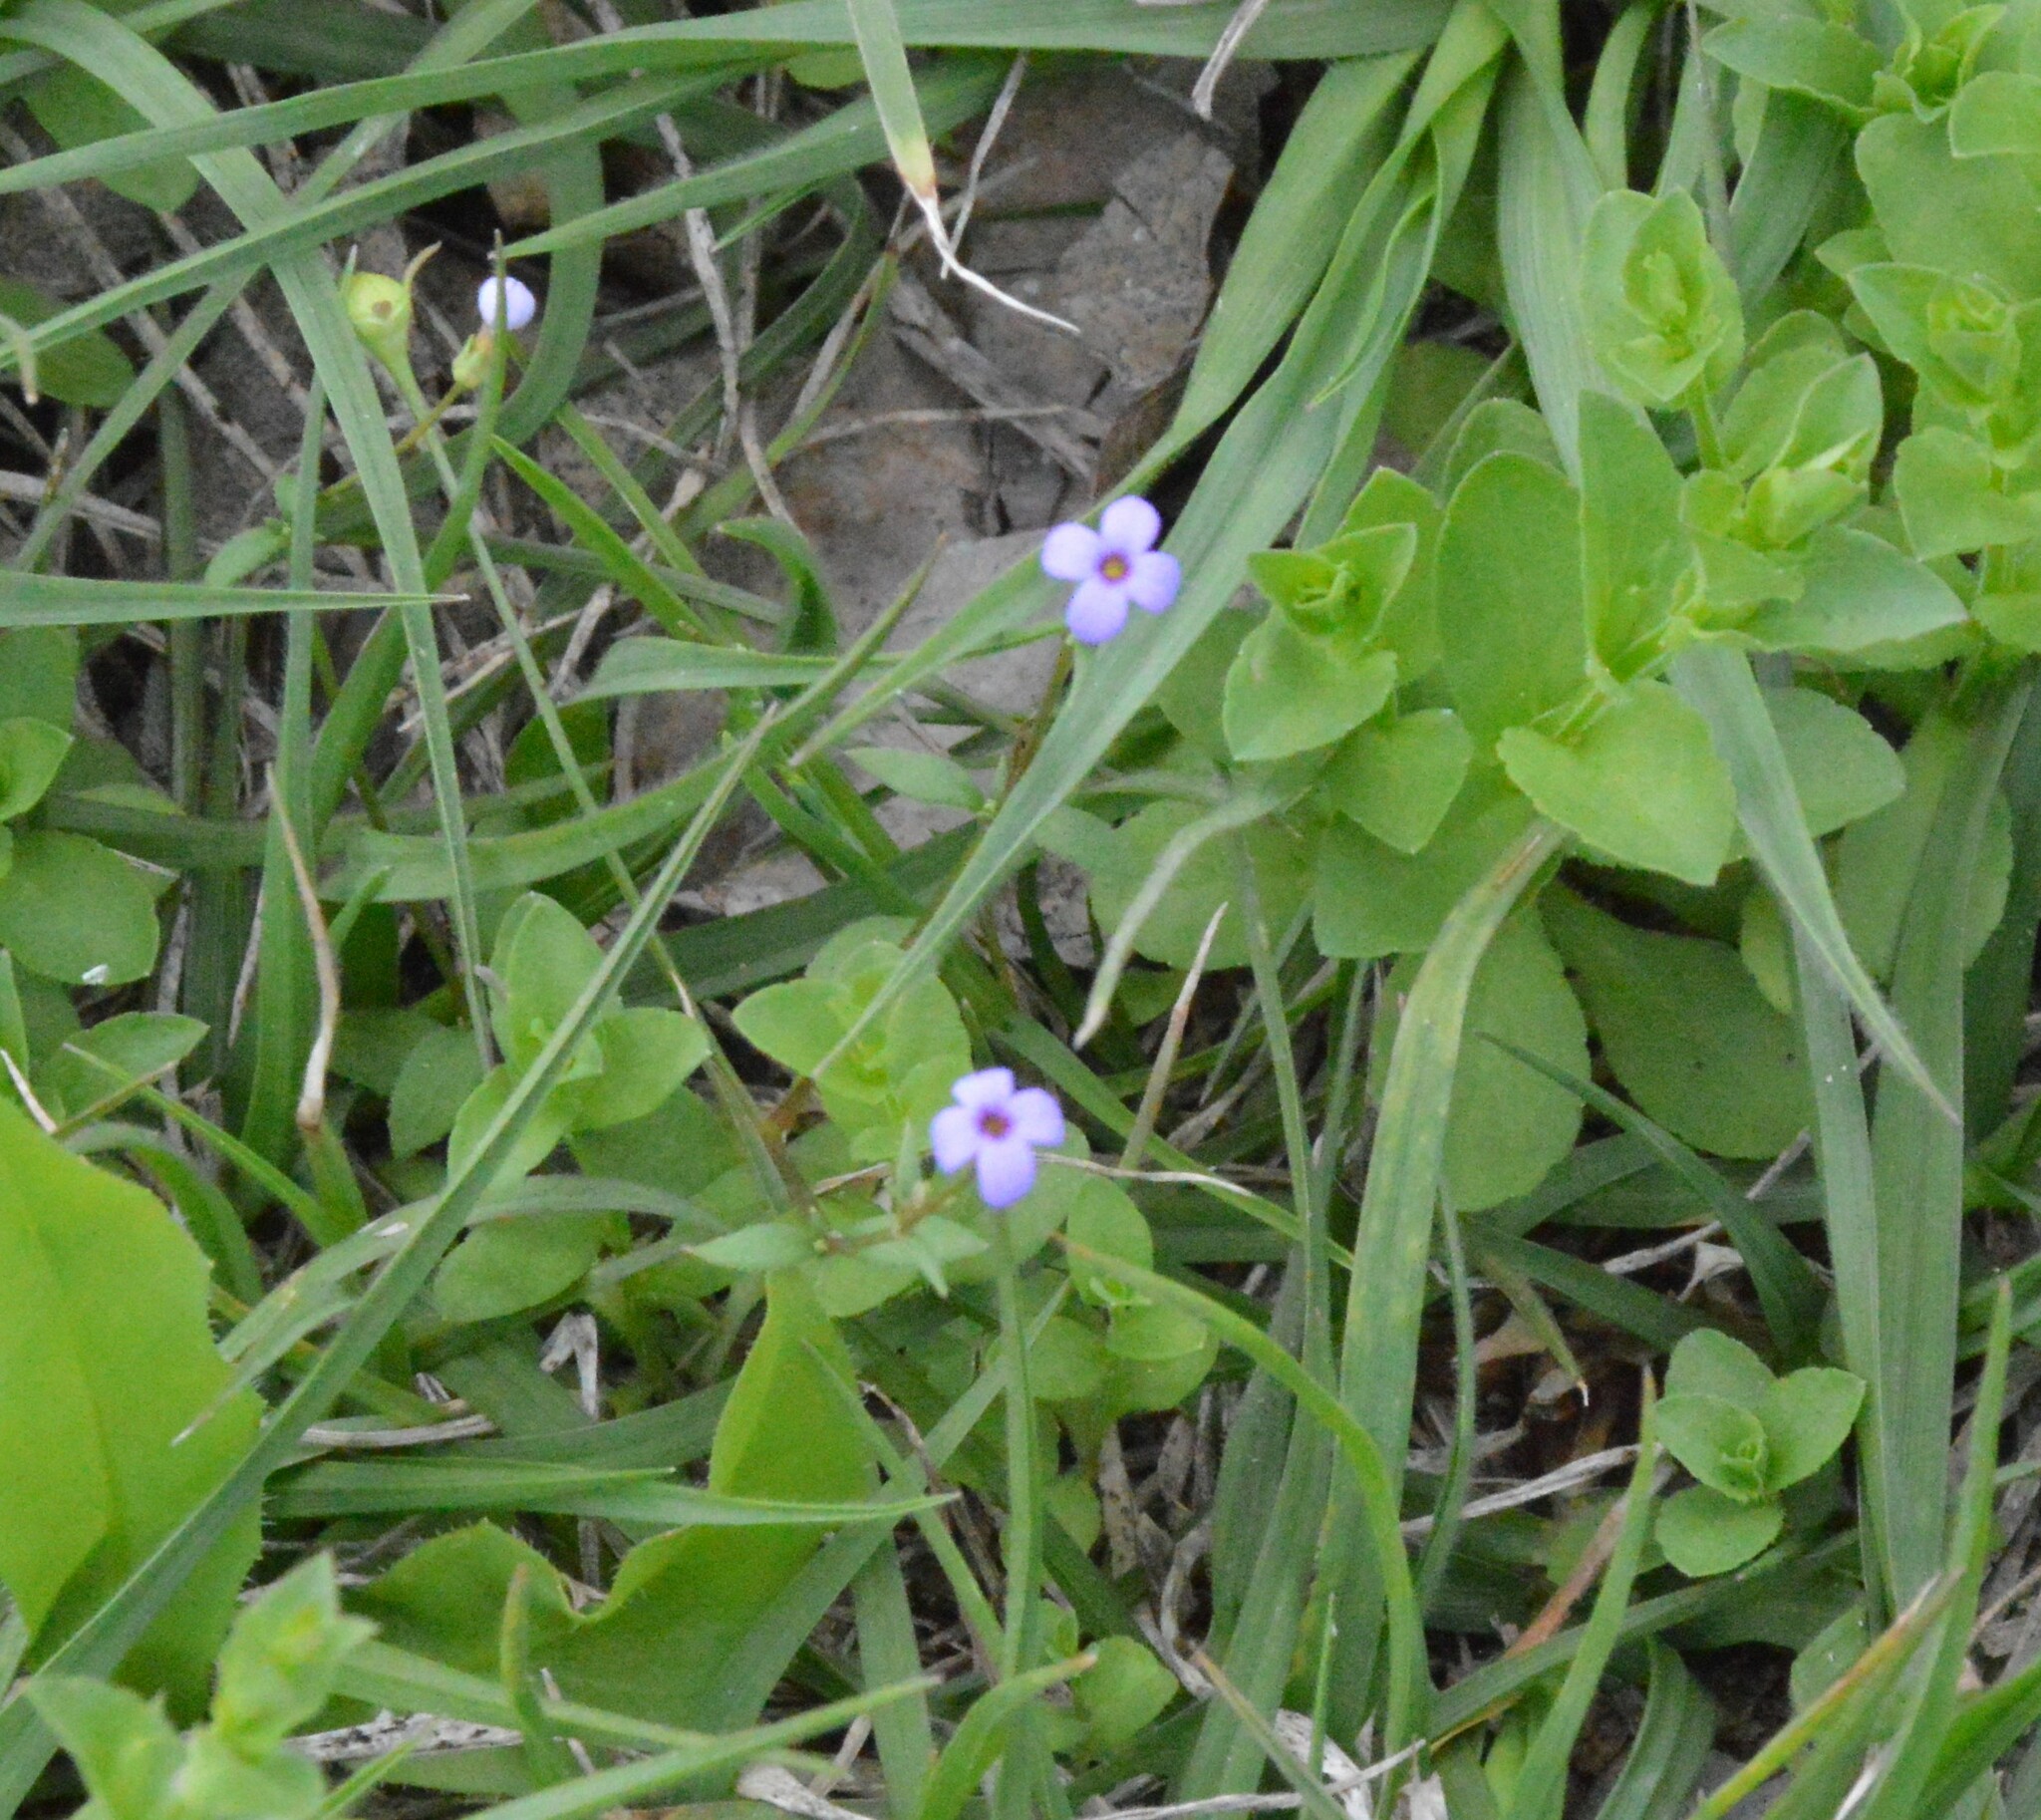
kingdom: Plantae
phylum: Tracheophyta
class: Magnoliopsida
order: Gentianales
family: Rubiaceae
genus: Houstonia
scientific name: Houstonia pusilla
